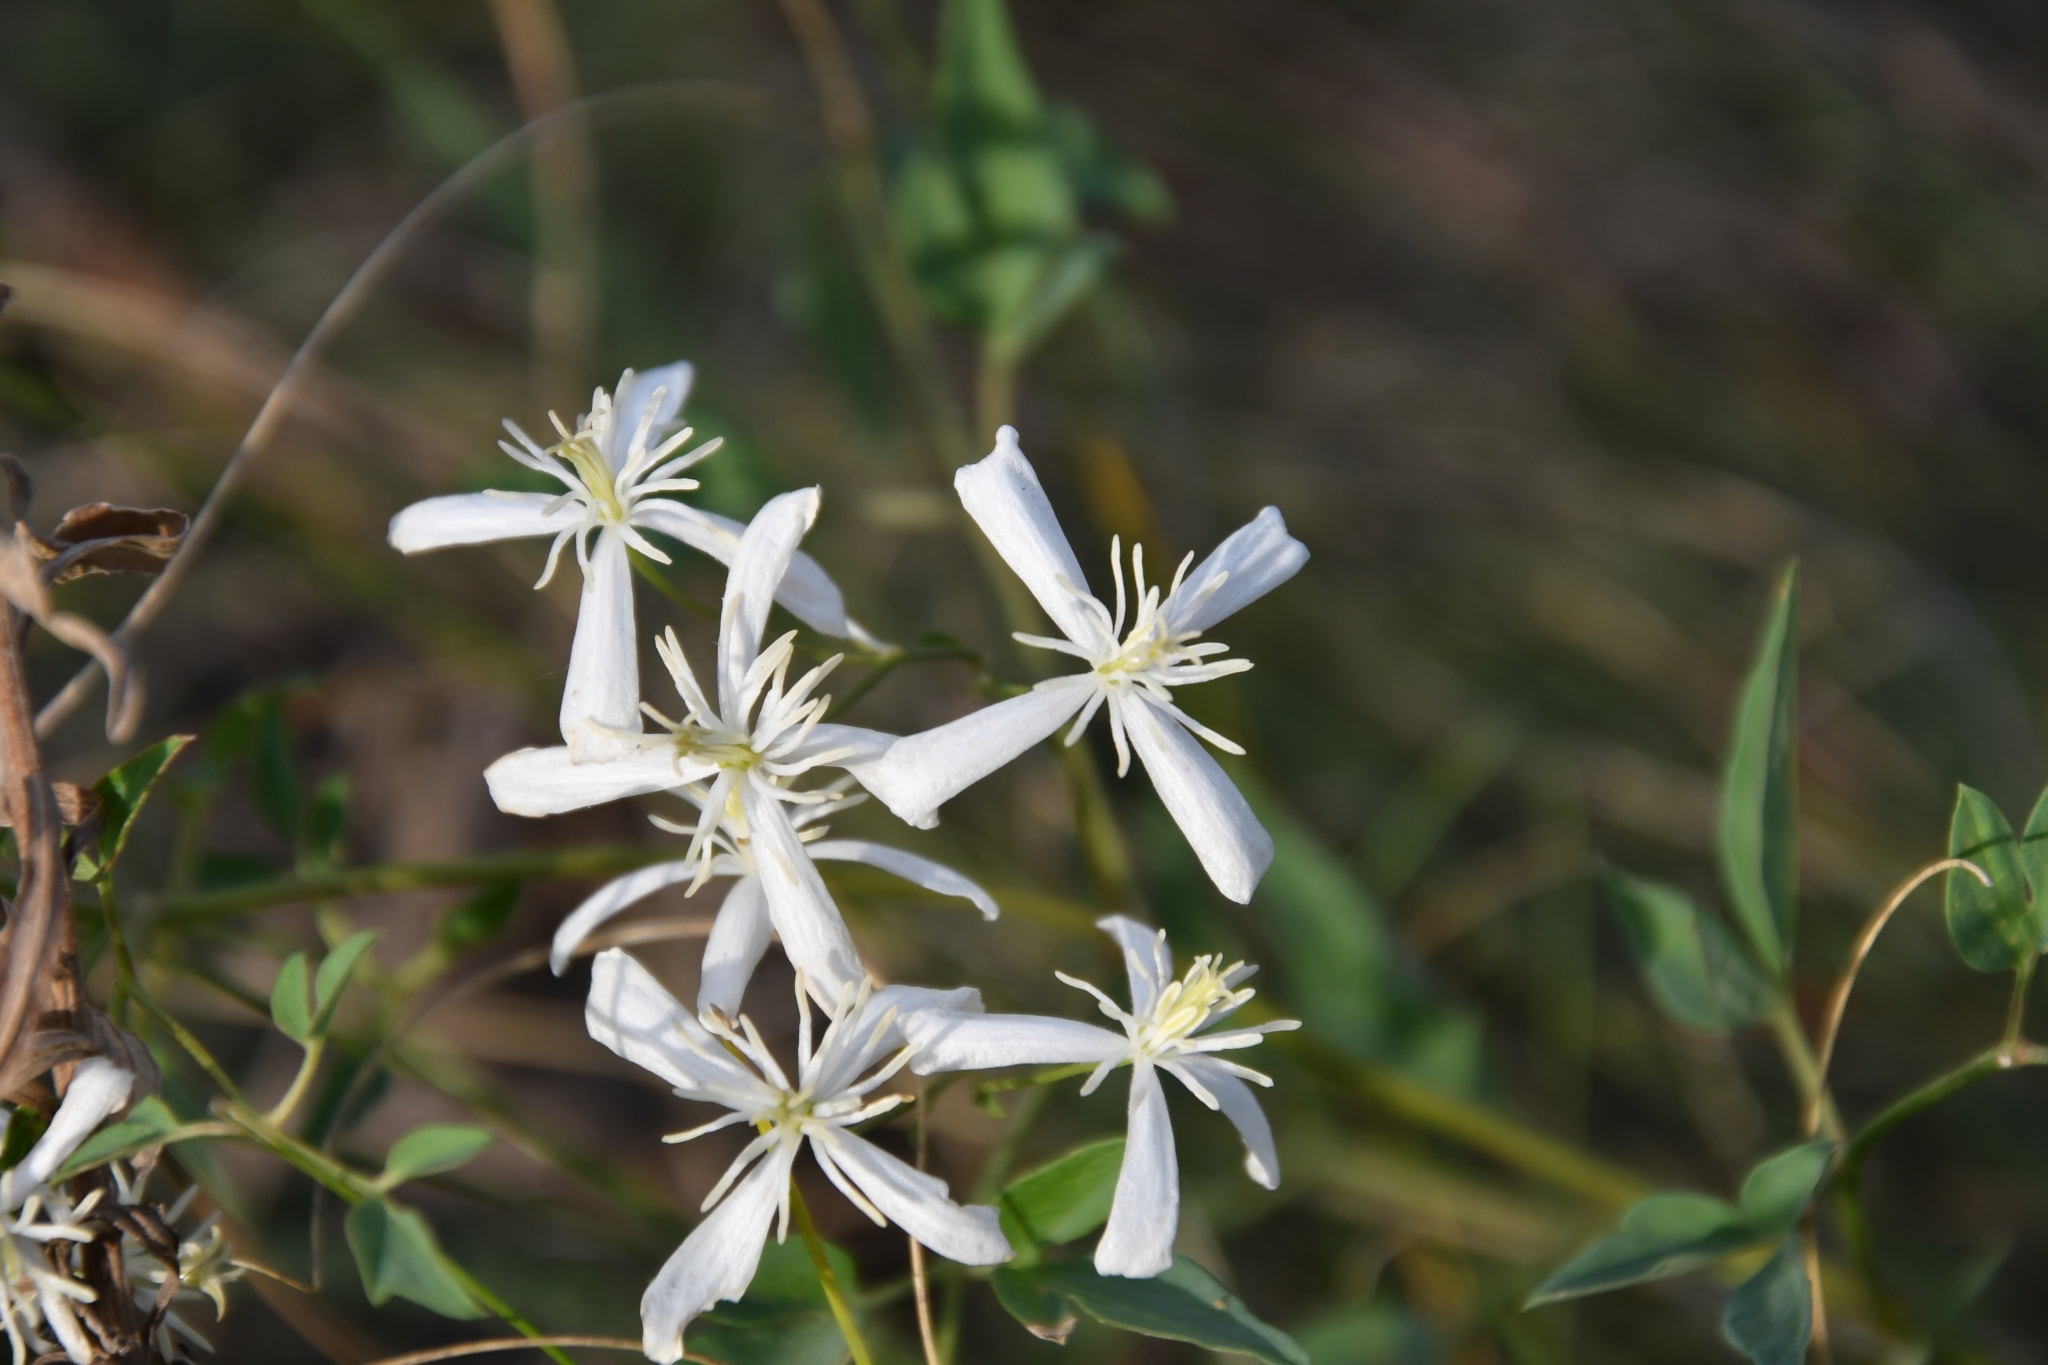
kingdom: Plantae
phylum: Tracheophyta
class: Magnoliopsida
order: Ranunculales
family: Ranunculaceae
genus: Clematis
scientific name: Clematis lathyrifolia
